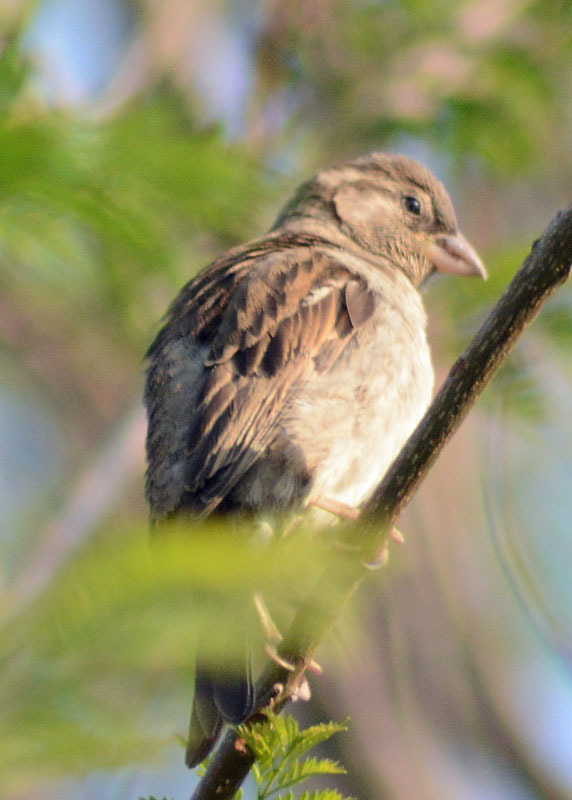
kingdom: Animalia
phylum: Chordata
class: Aves
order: Passeriformes
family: Passeridae
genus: Passer
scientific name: Passer domesticus
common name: House sparrow
